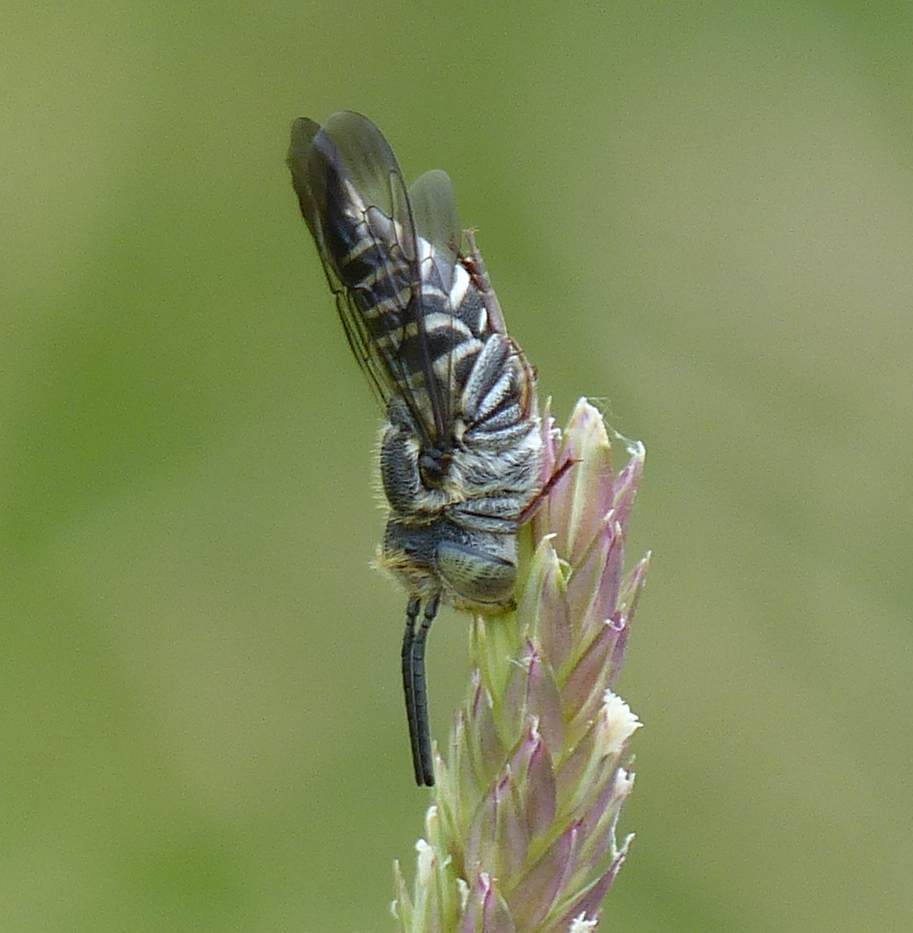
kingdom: Animalia
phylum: Arthropoda
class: Insecta
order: Hymenoptera
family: Megachilidae
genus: Coelioxys
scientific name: Coelioxys rufitarsis
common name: Red-footed sharptail
